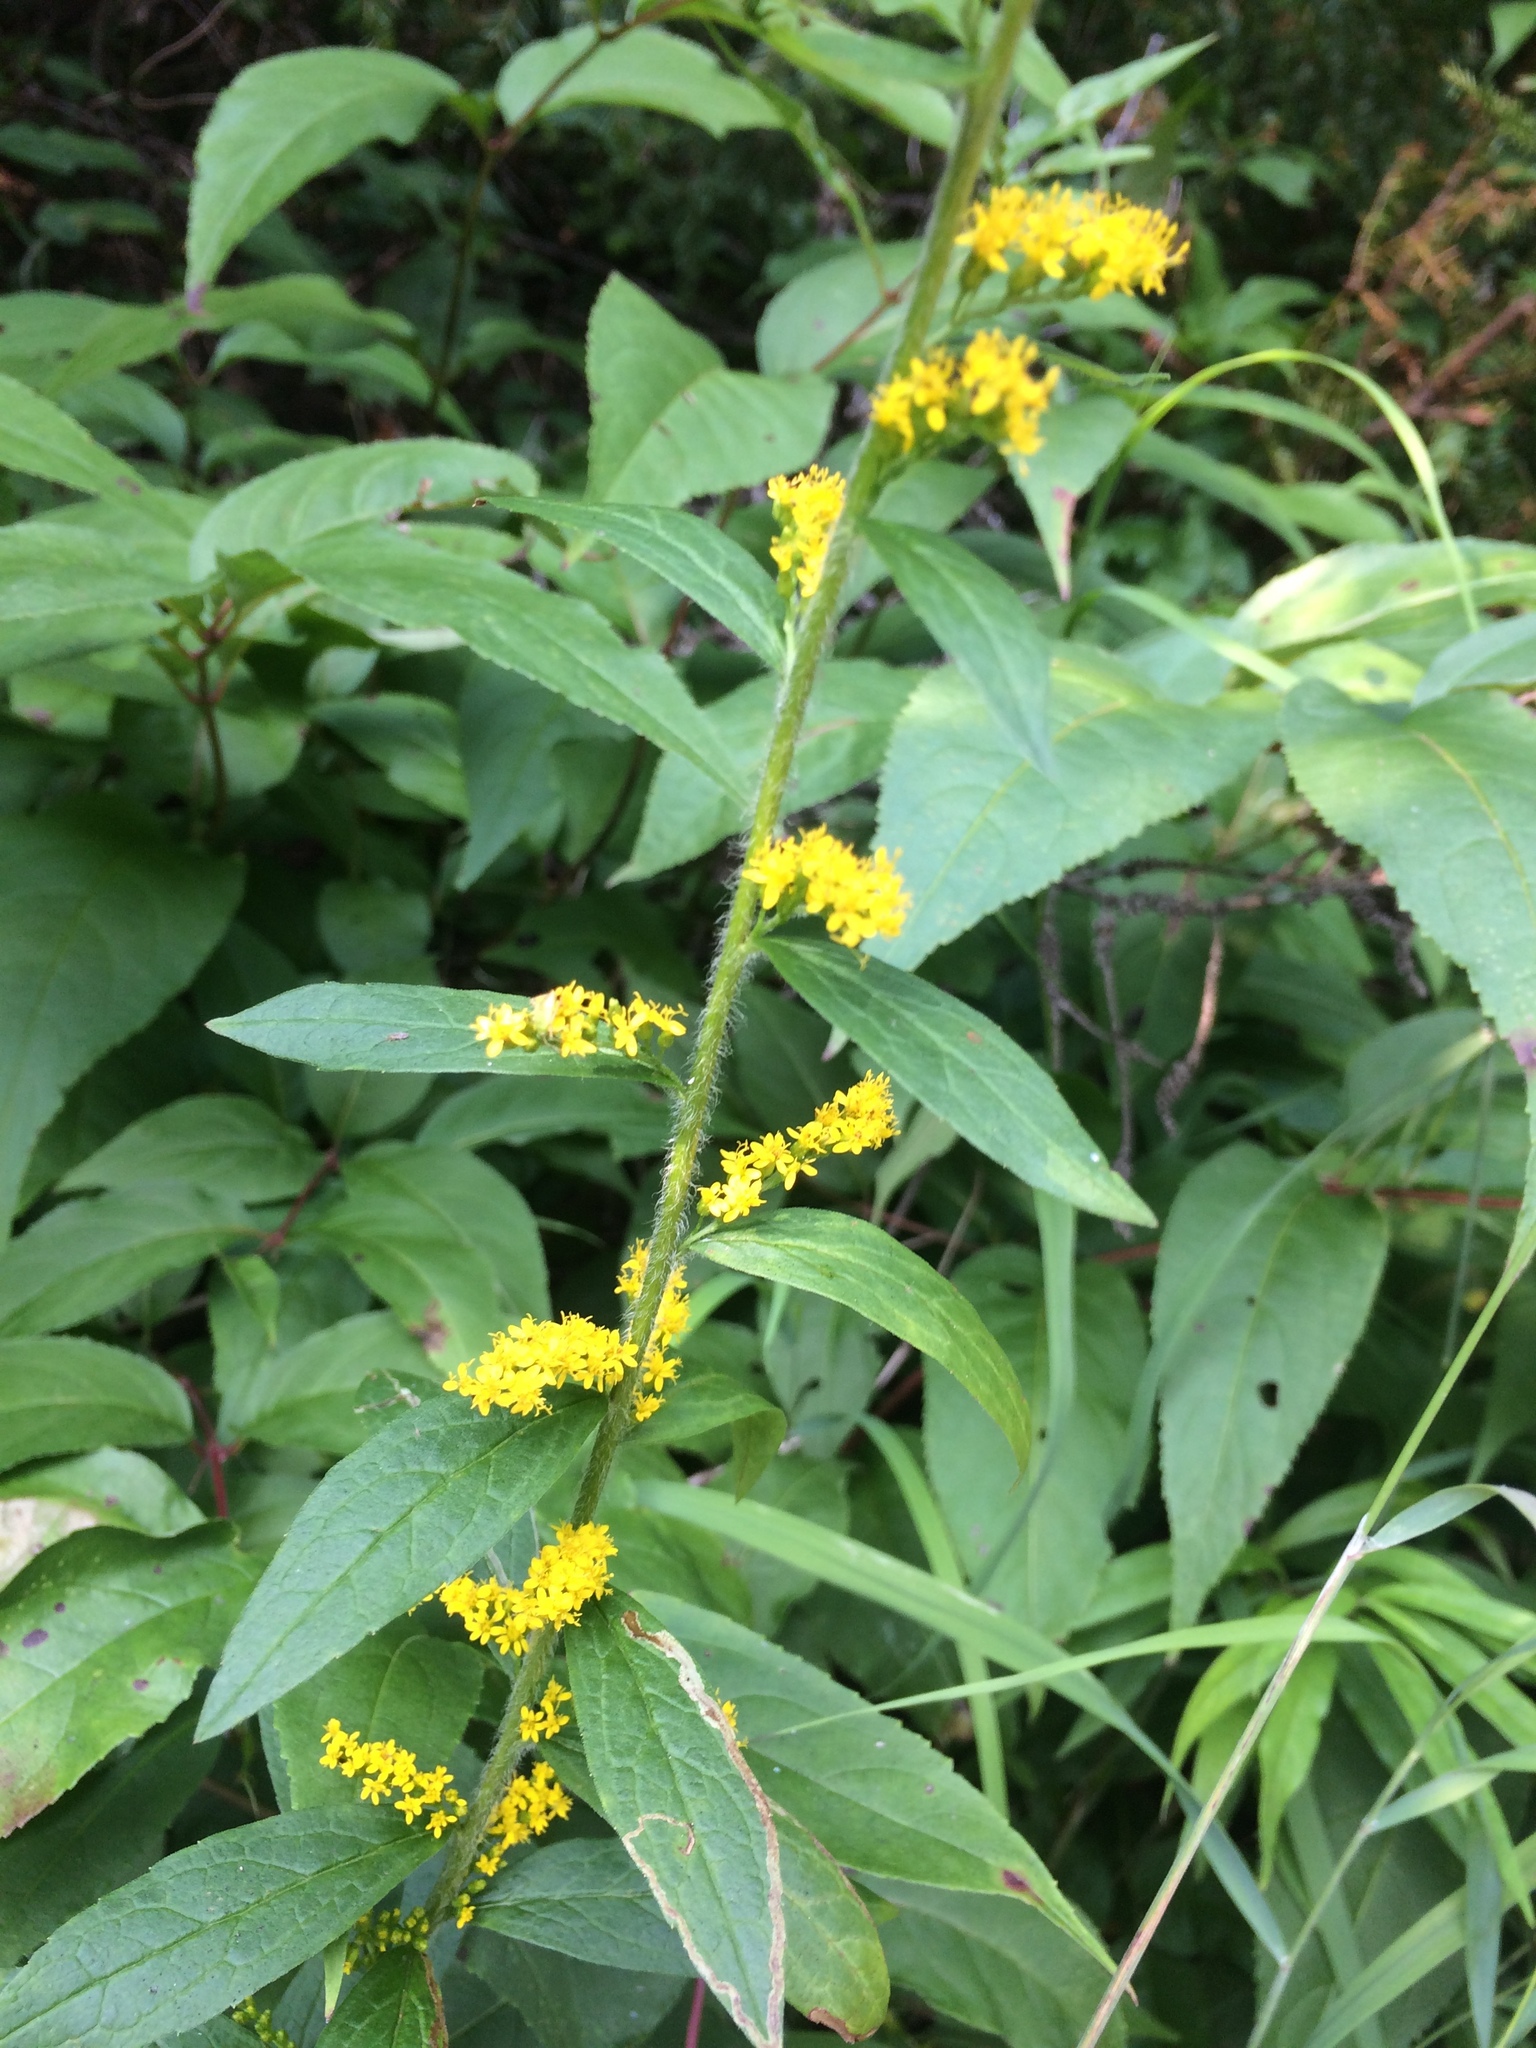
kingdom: Plantae
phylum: Tracheophyta
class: Magnoliopsida
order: Asterales
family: Asteraceae
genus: Solidago
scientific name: Solidago rugosa
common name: Rough-stemmed goldenrod
